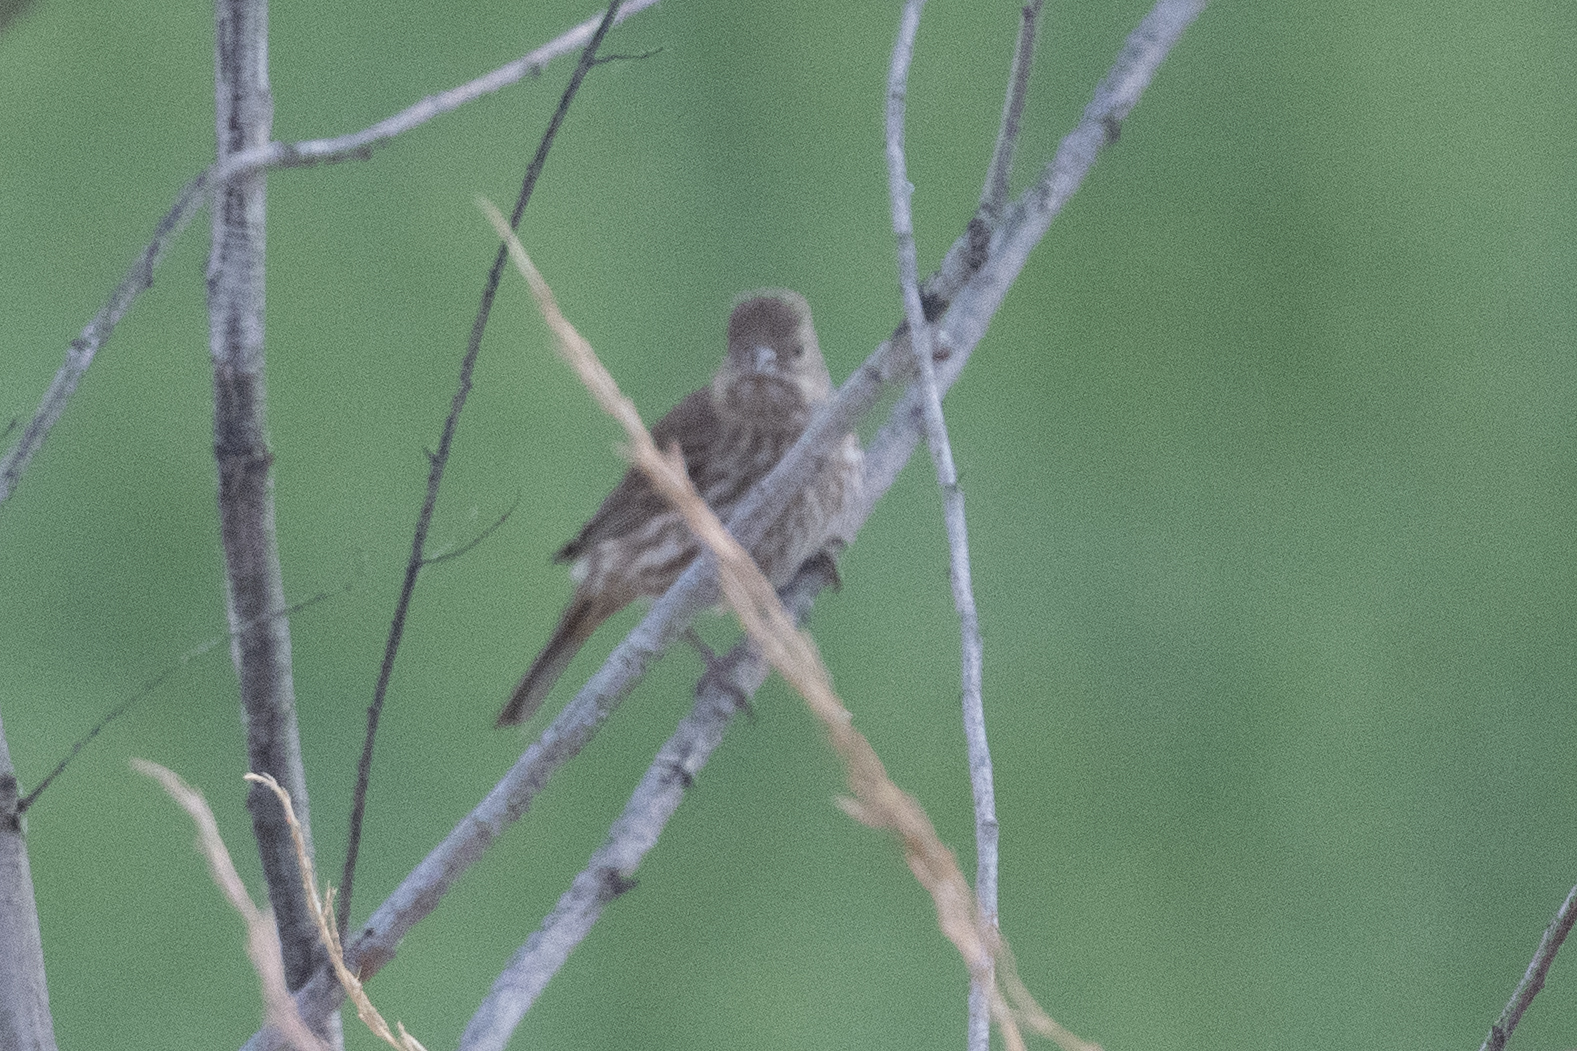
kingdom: Animalia
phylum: Chordata
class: Aves
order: Passeriformes
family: Fringillidae
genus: Haemorhous
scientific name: Haemorhous mexicanus
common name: House finch
